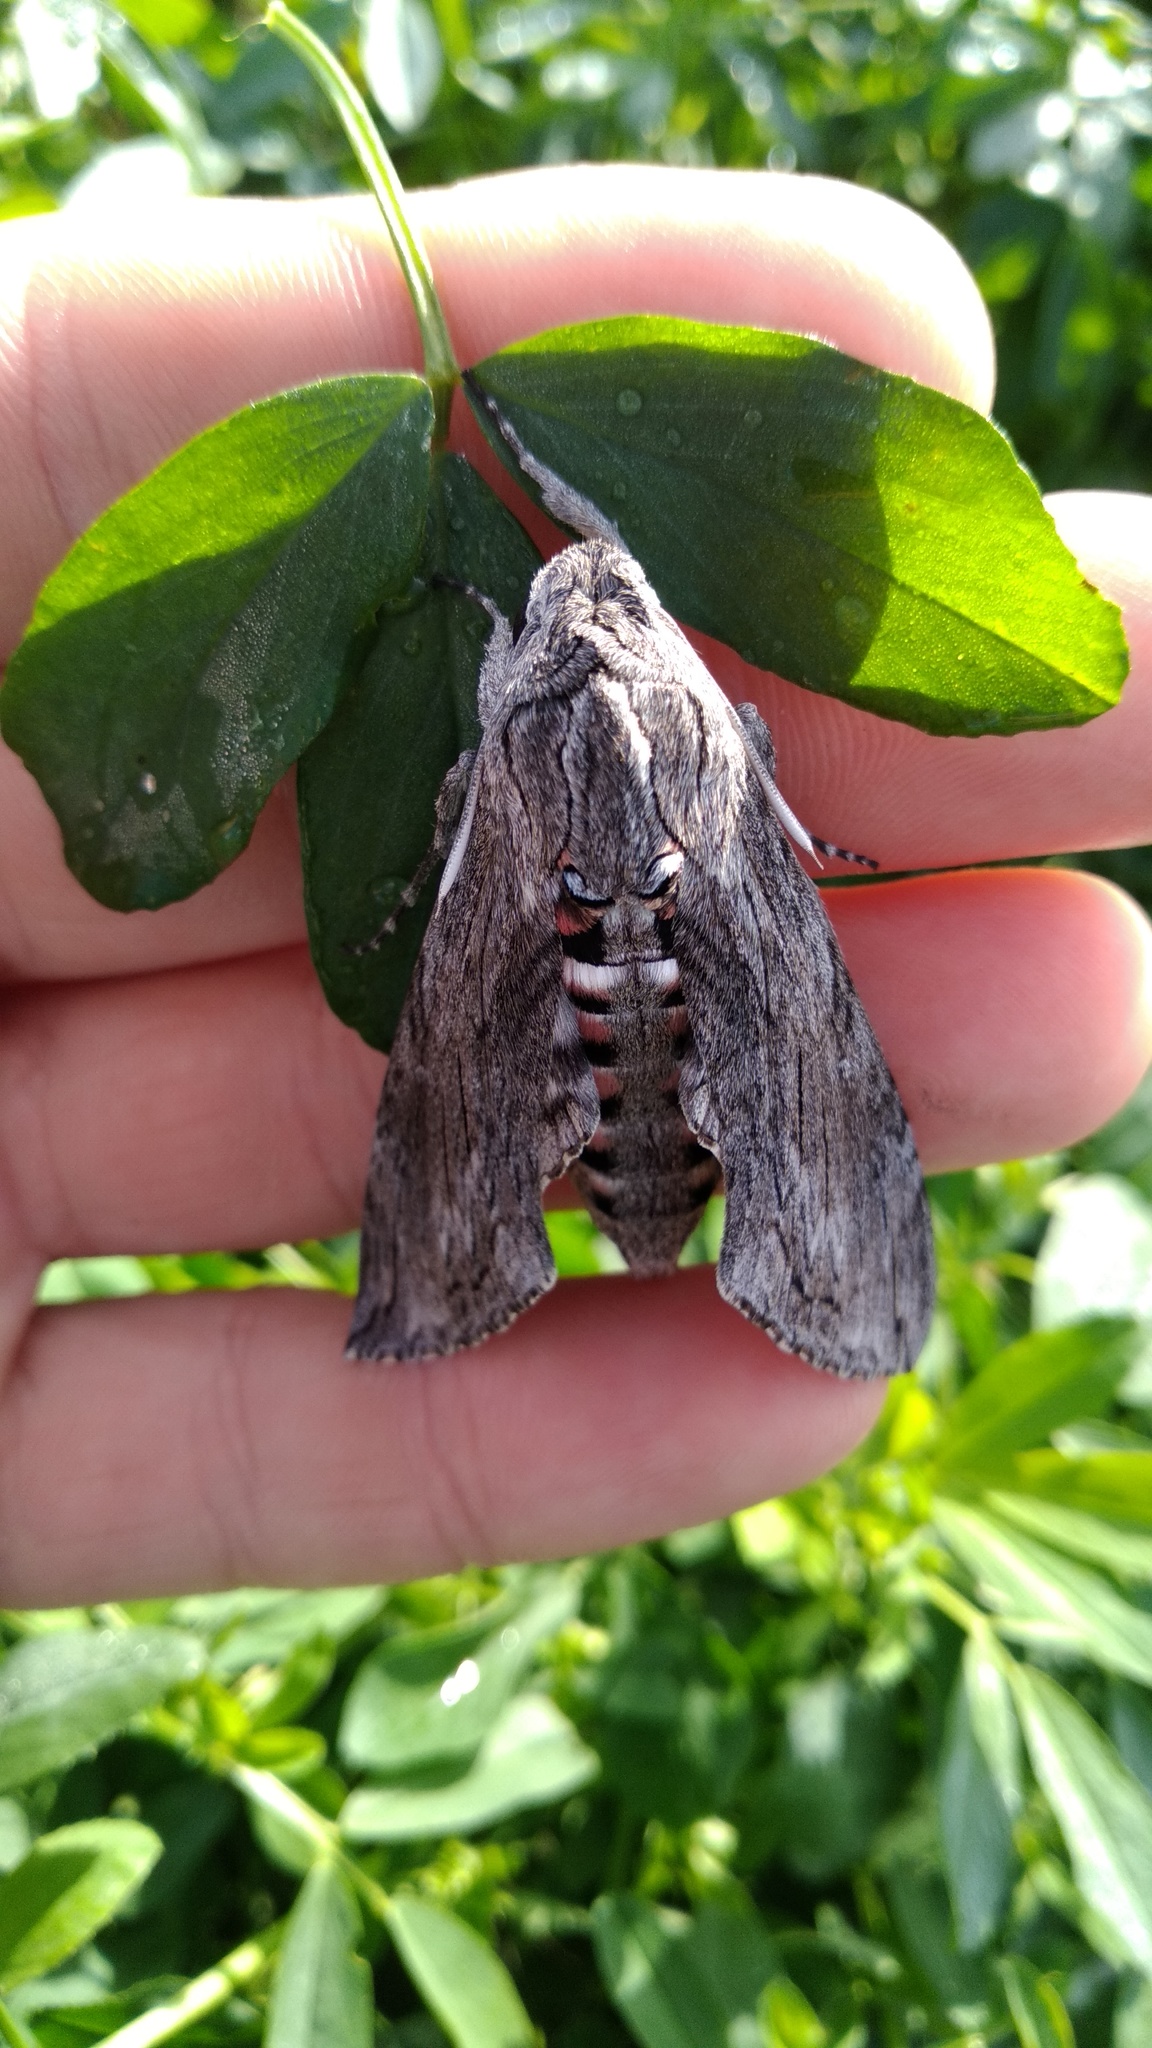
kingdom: Animalia
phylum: Arthropoda
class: Insecta
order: Lepidoptera
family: Sphingidae
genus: Agrius
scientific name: Agrius convolvuli
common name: Convolvulus hawkmoth
